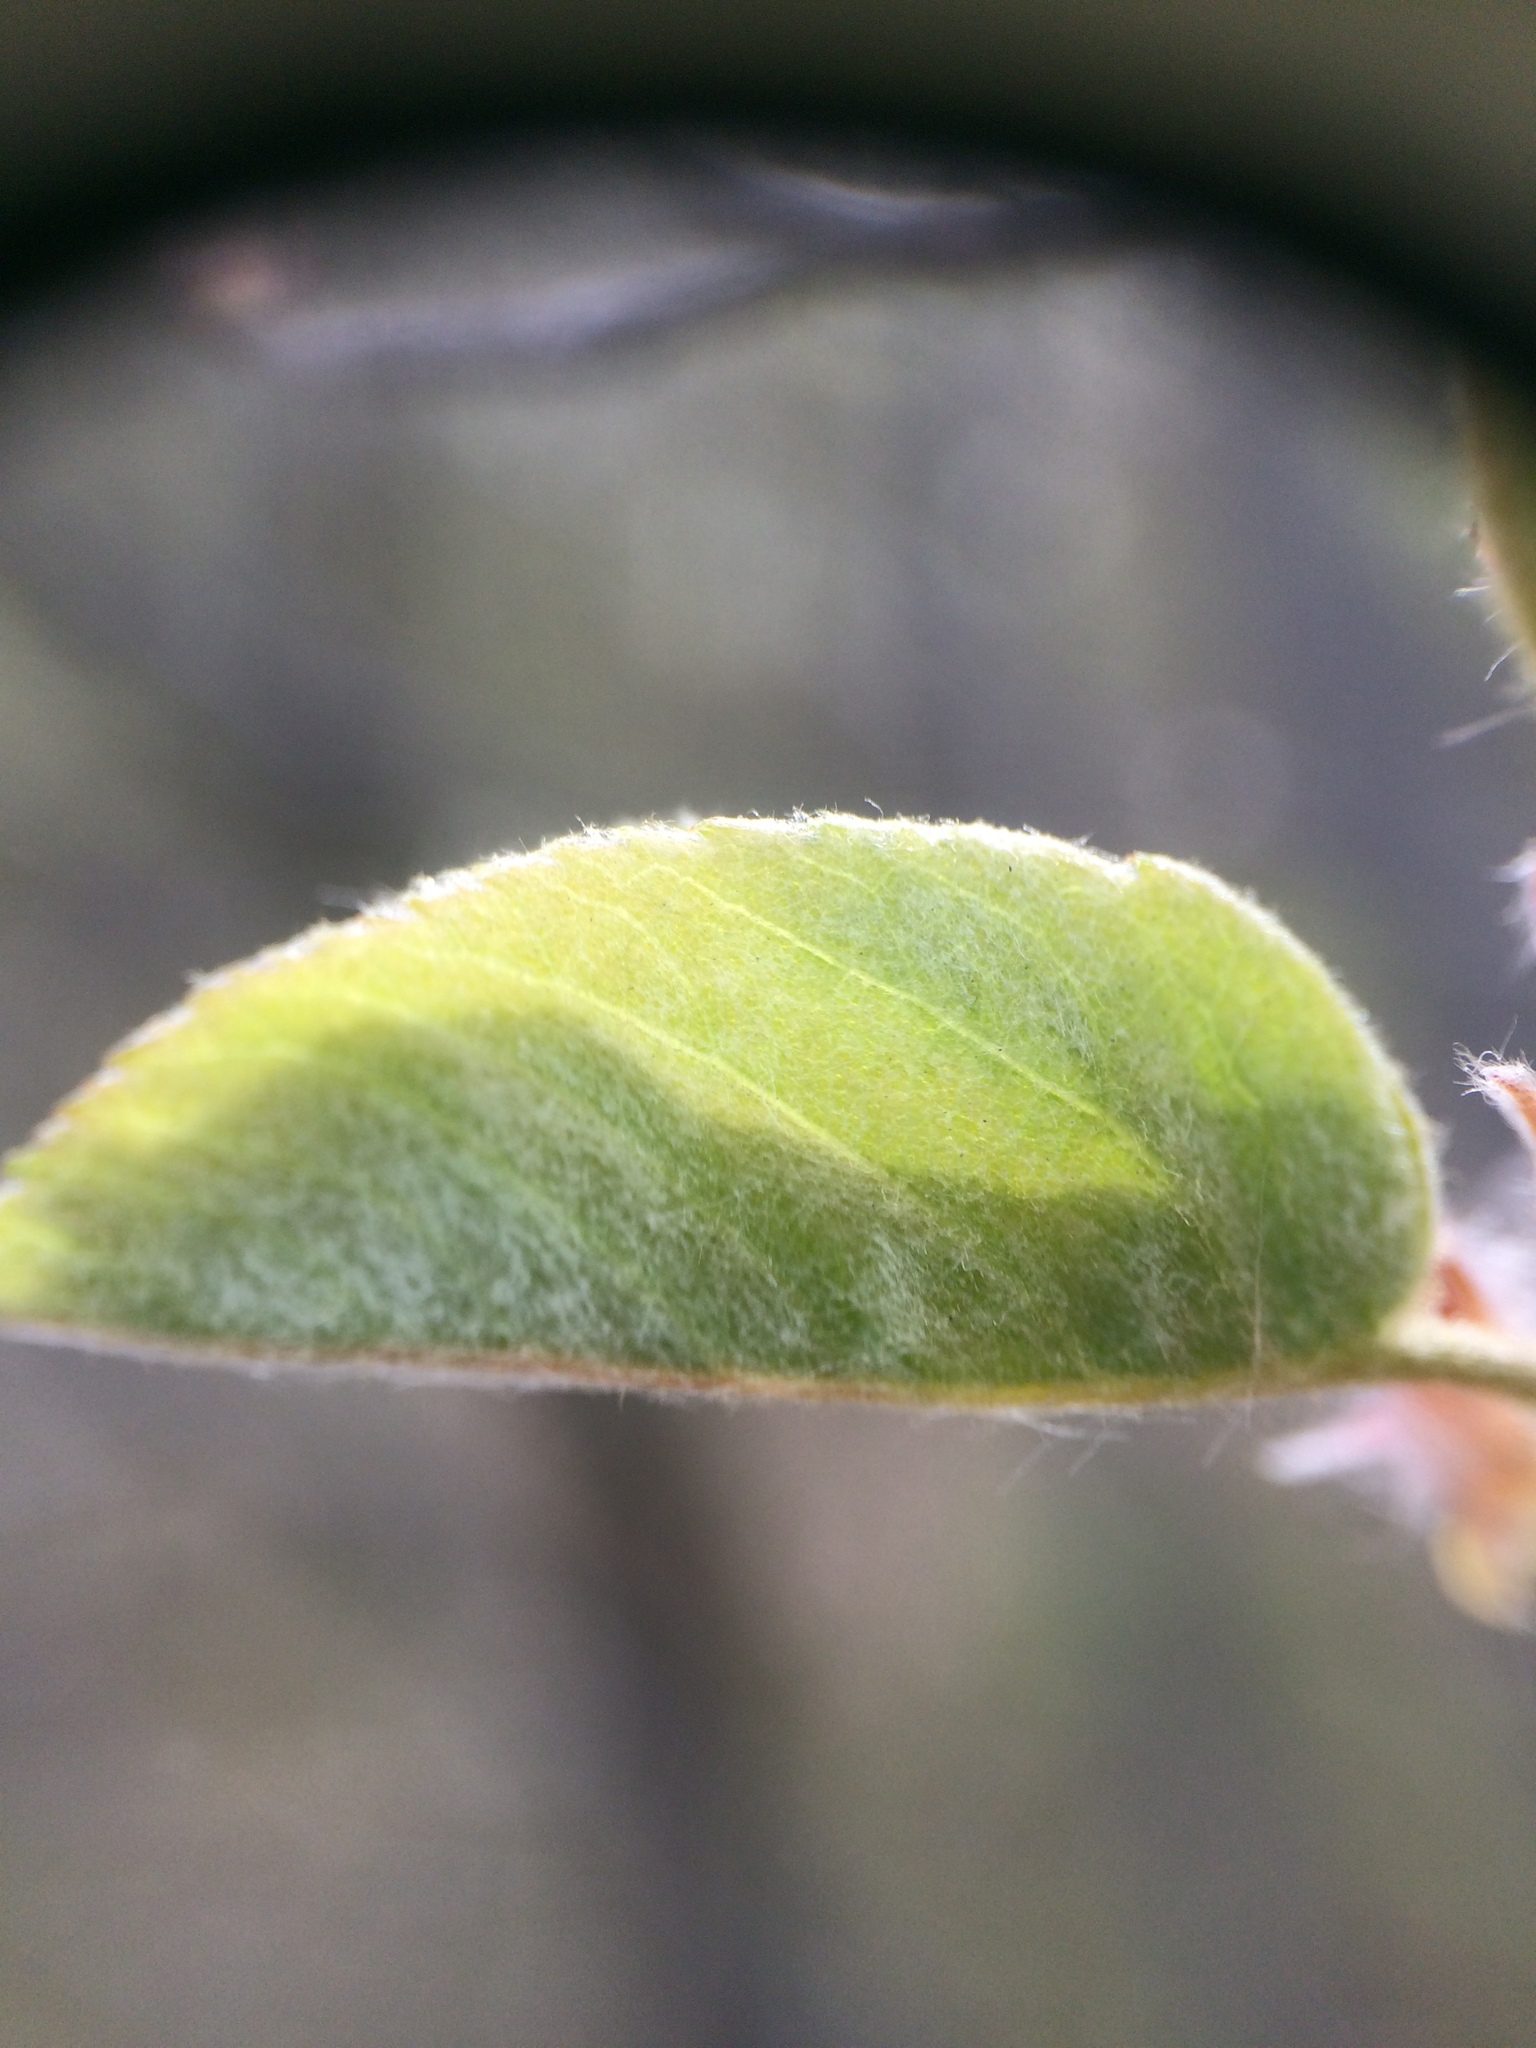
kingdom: Plantae
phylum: Tracheophyta
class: Magnoliopsida
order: Rosales
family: Rosaceae
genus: Amelanchier
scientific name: Amelanchier
